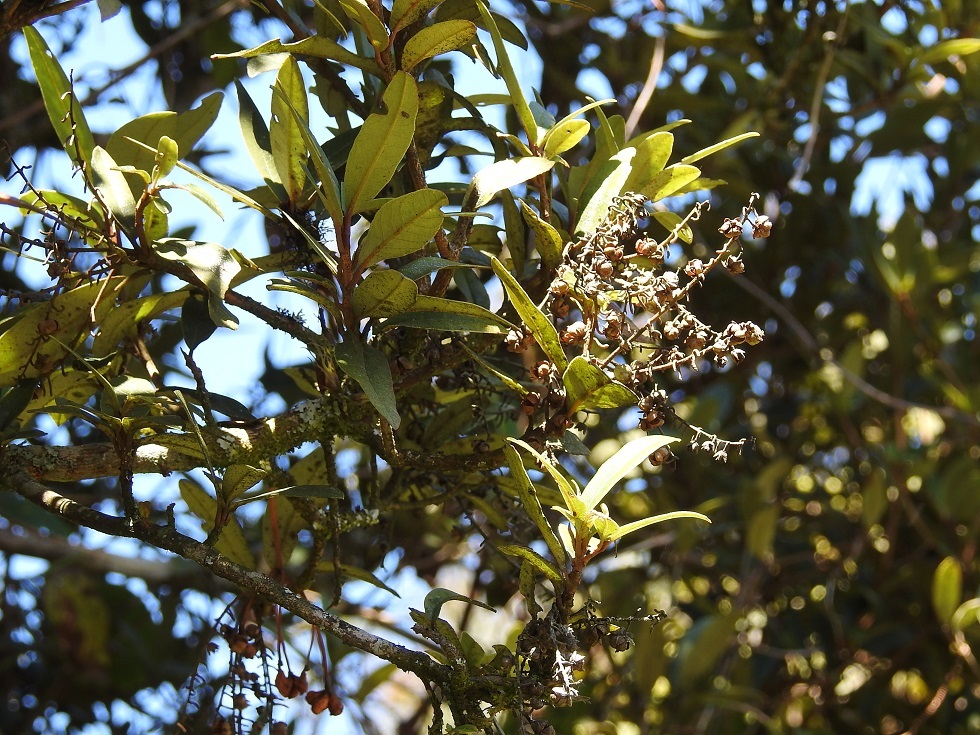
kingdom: Plantae
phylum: Tracheophyta
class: Magnoliopsida
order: Ericales
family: Clethraceae
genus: Clethra
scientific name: Clethra oleoides
